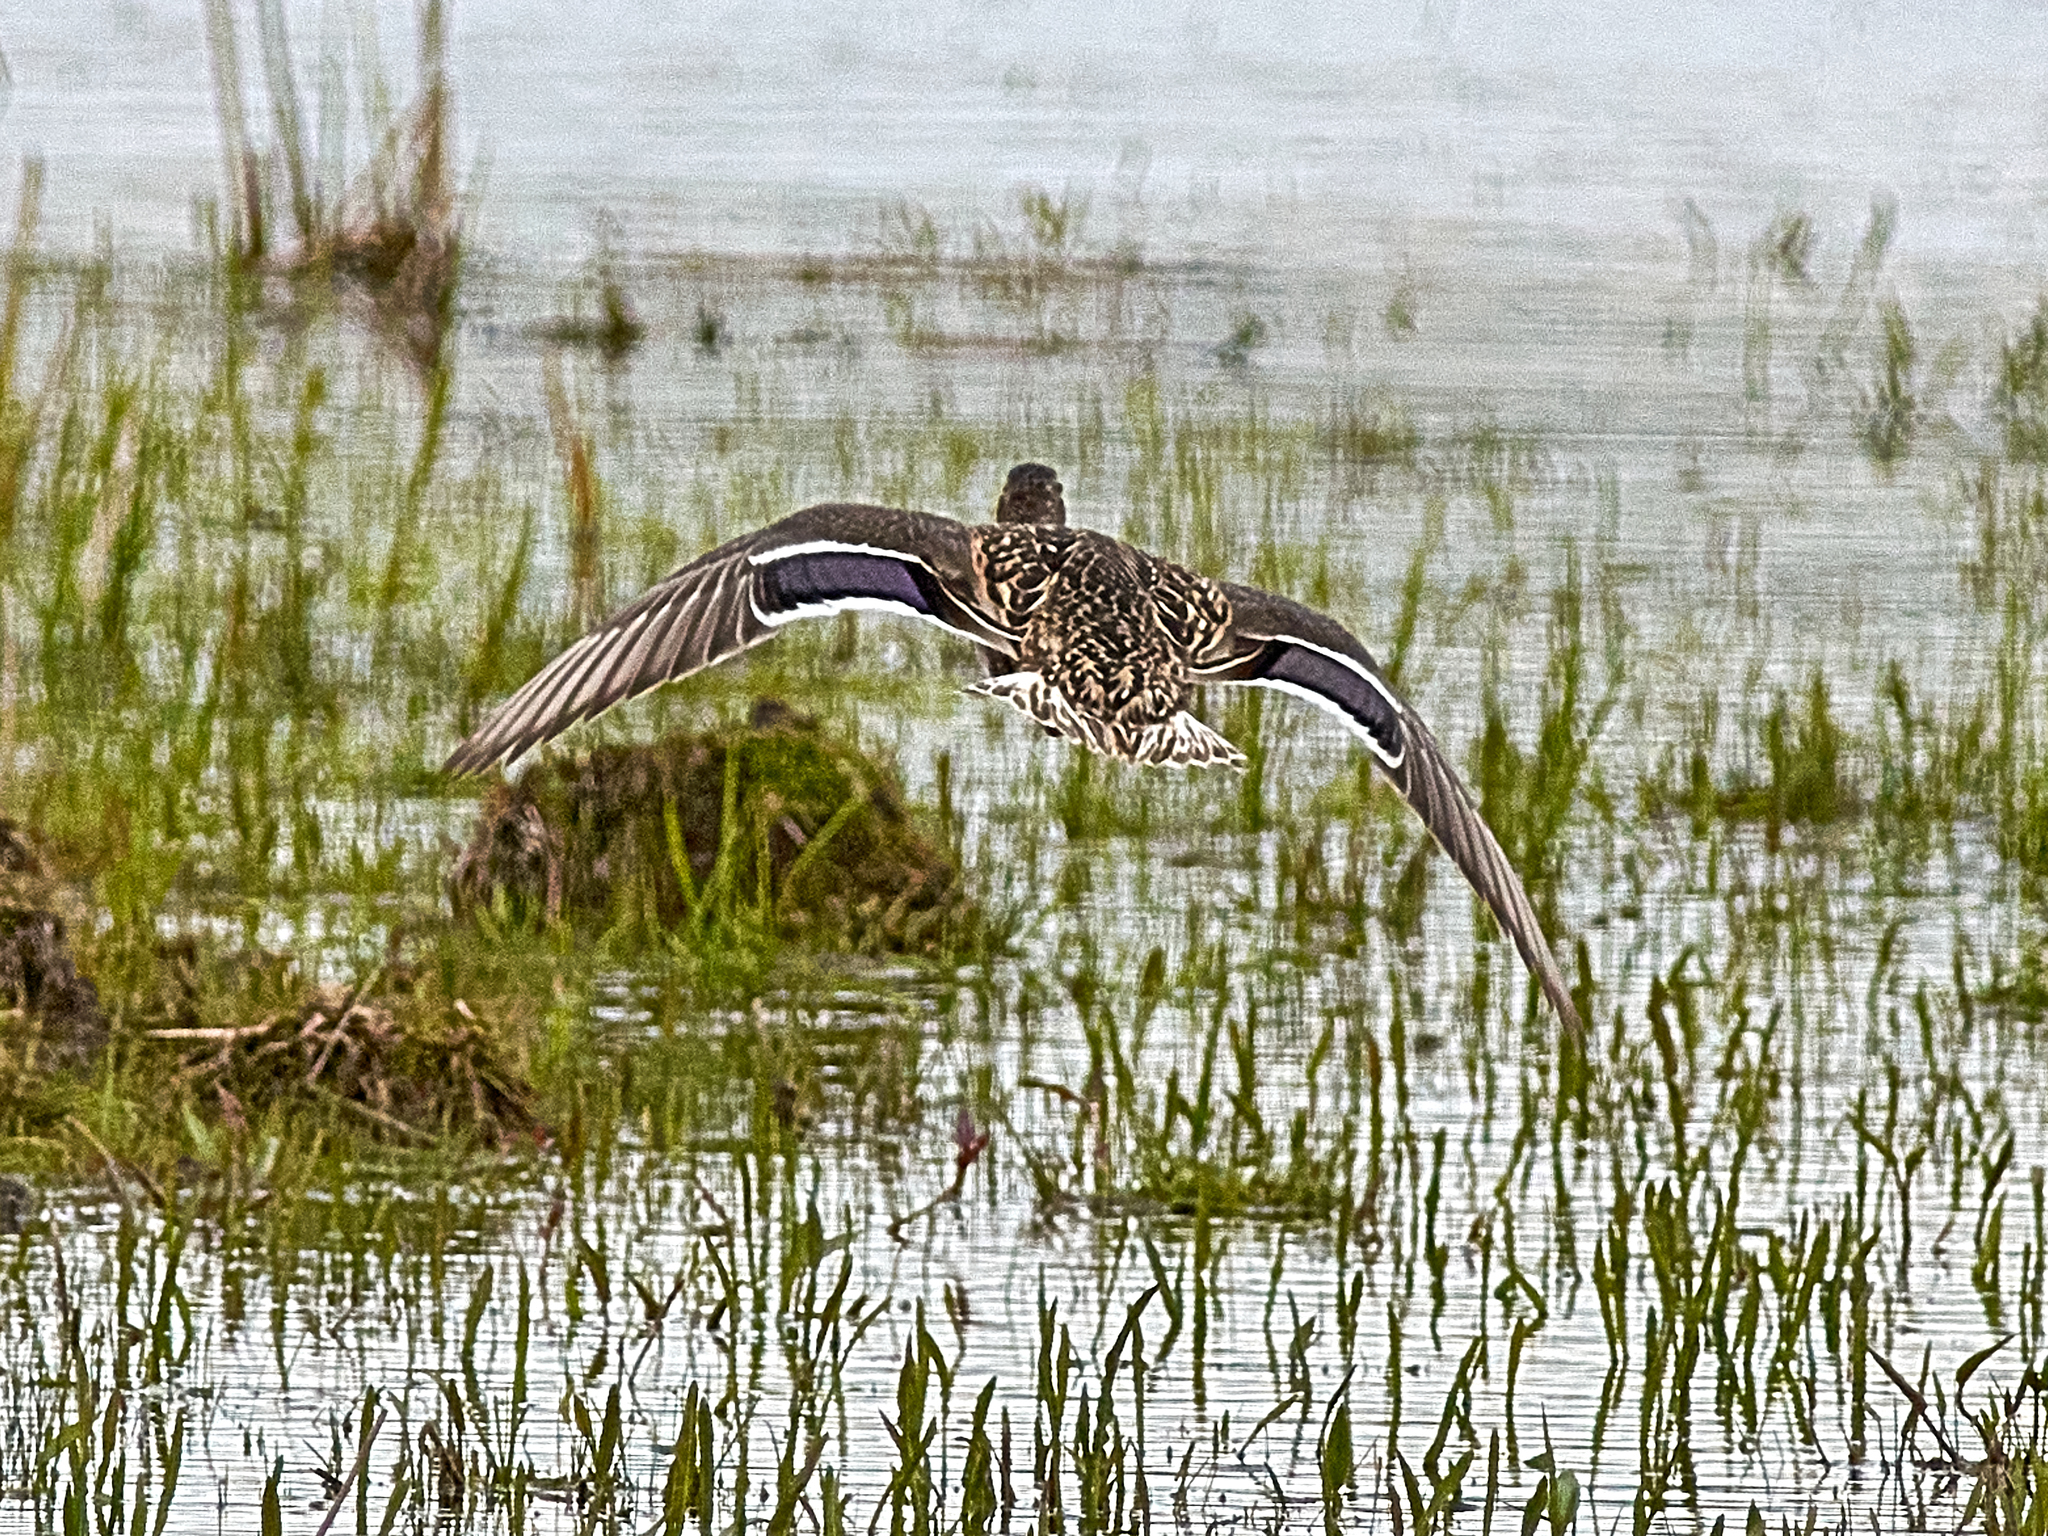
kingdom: Animalia
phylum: Chordata
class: Aves
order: Anseriformes
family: Anatidae
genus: Anas
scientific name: Anas platyrhynchos
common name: Mallard
